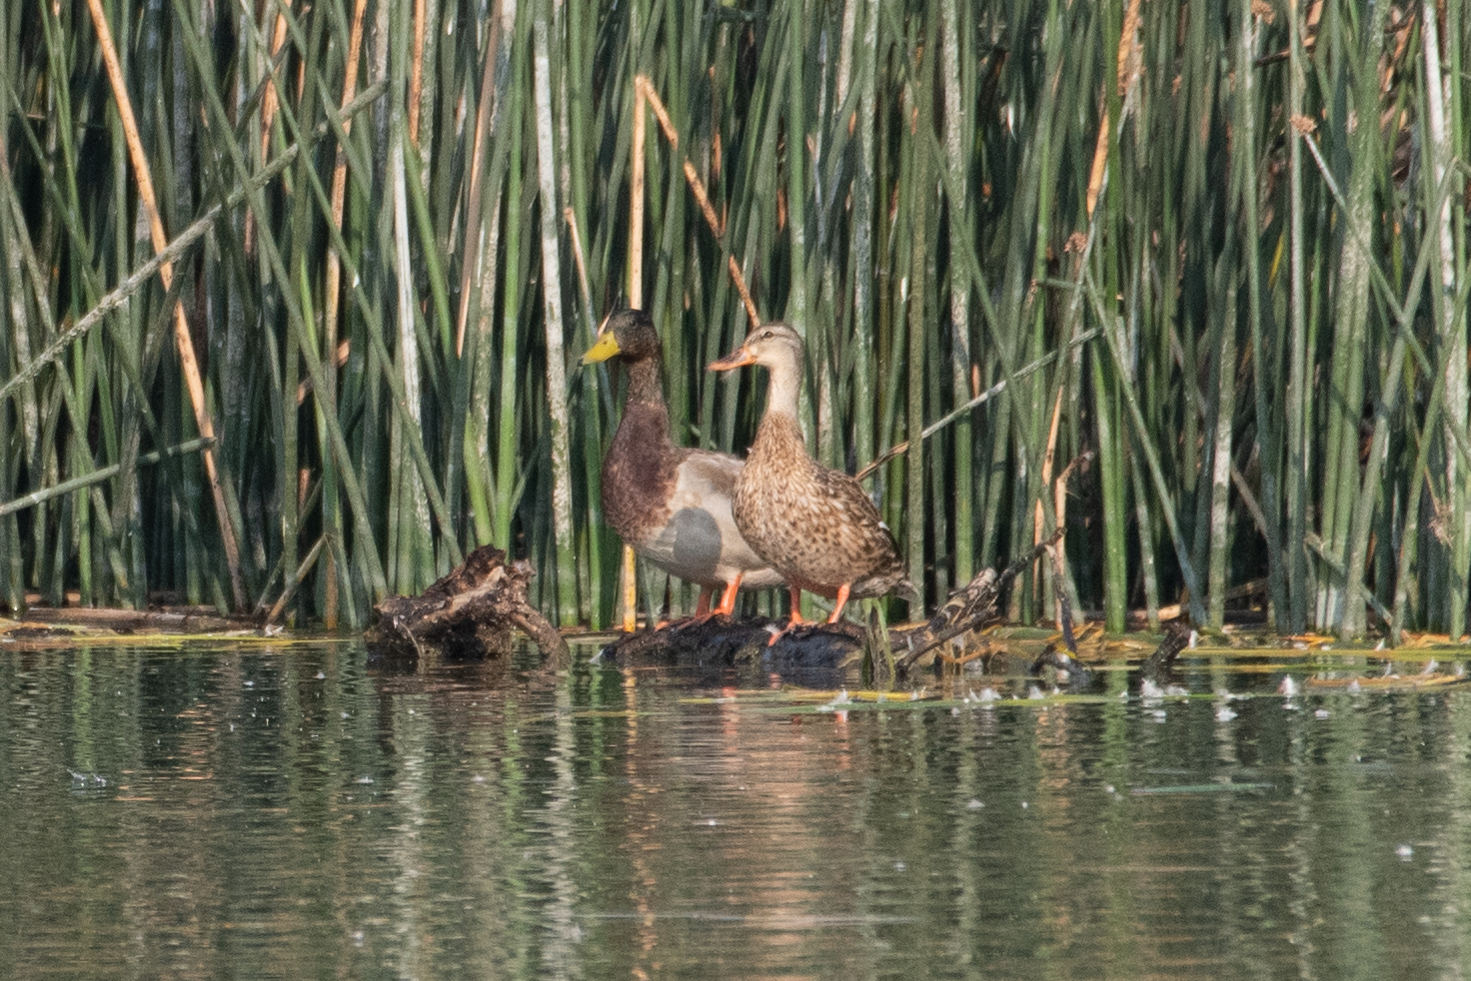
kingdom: Animalia
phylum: Chordata
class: Aves
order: Anseriformes
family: Anatidae
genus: Anas
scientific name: Anas platyrhynchos
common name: Mallard
